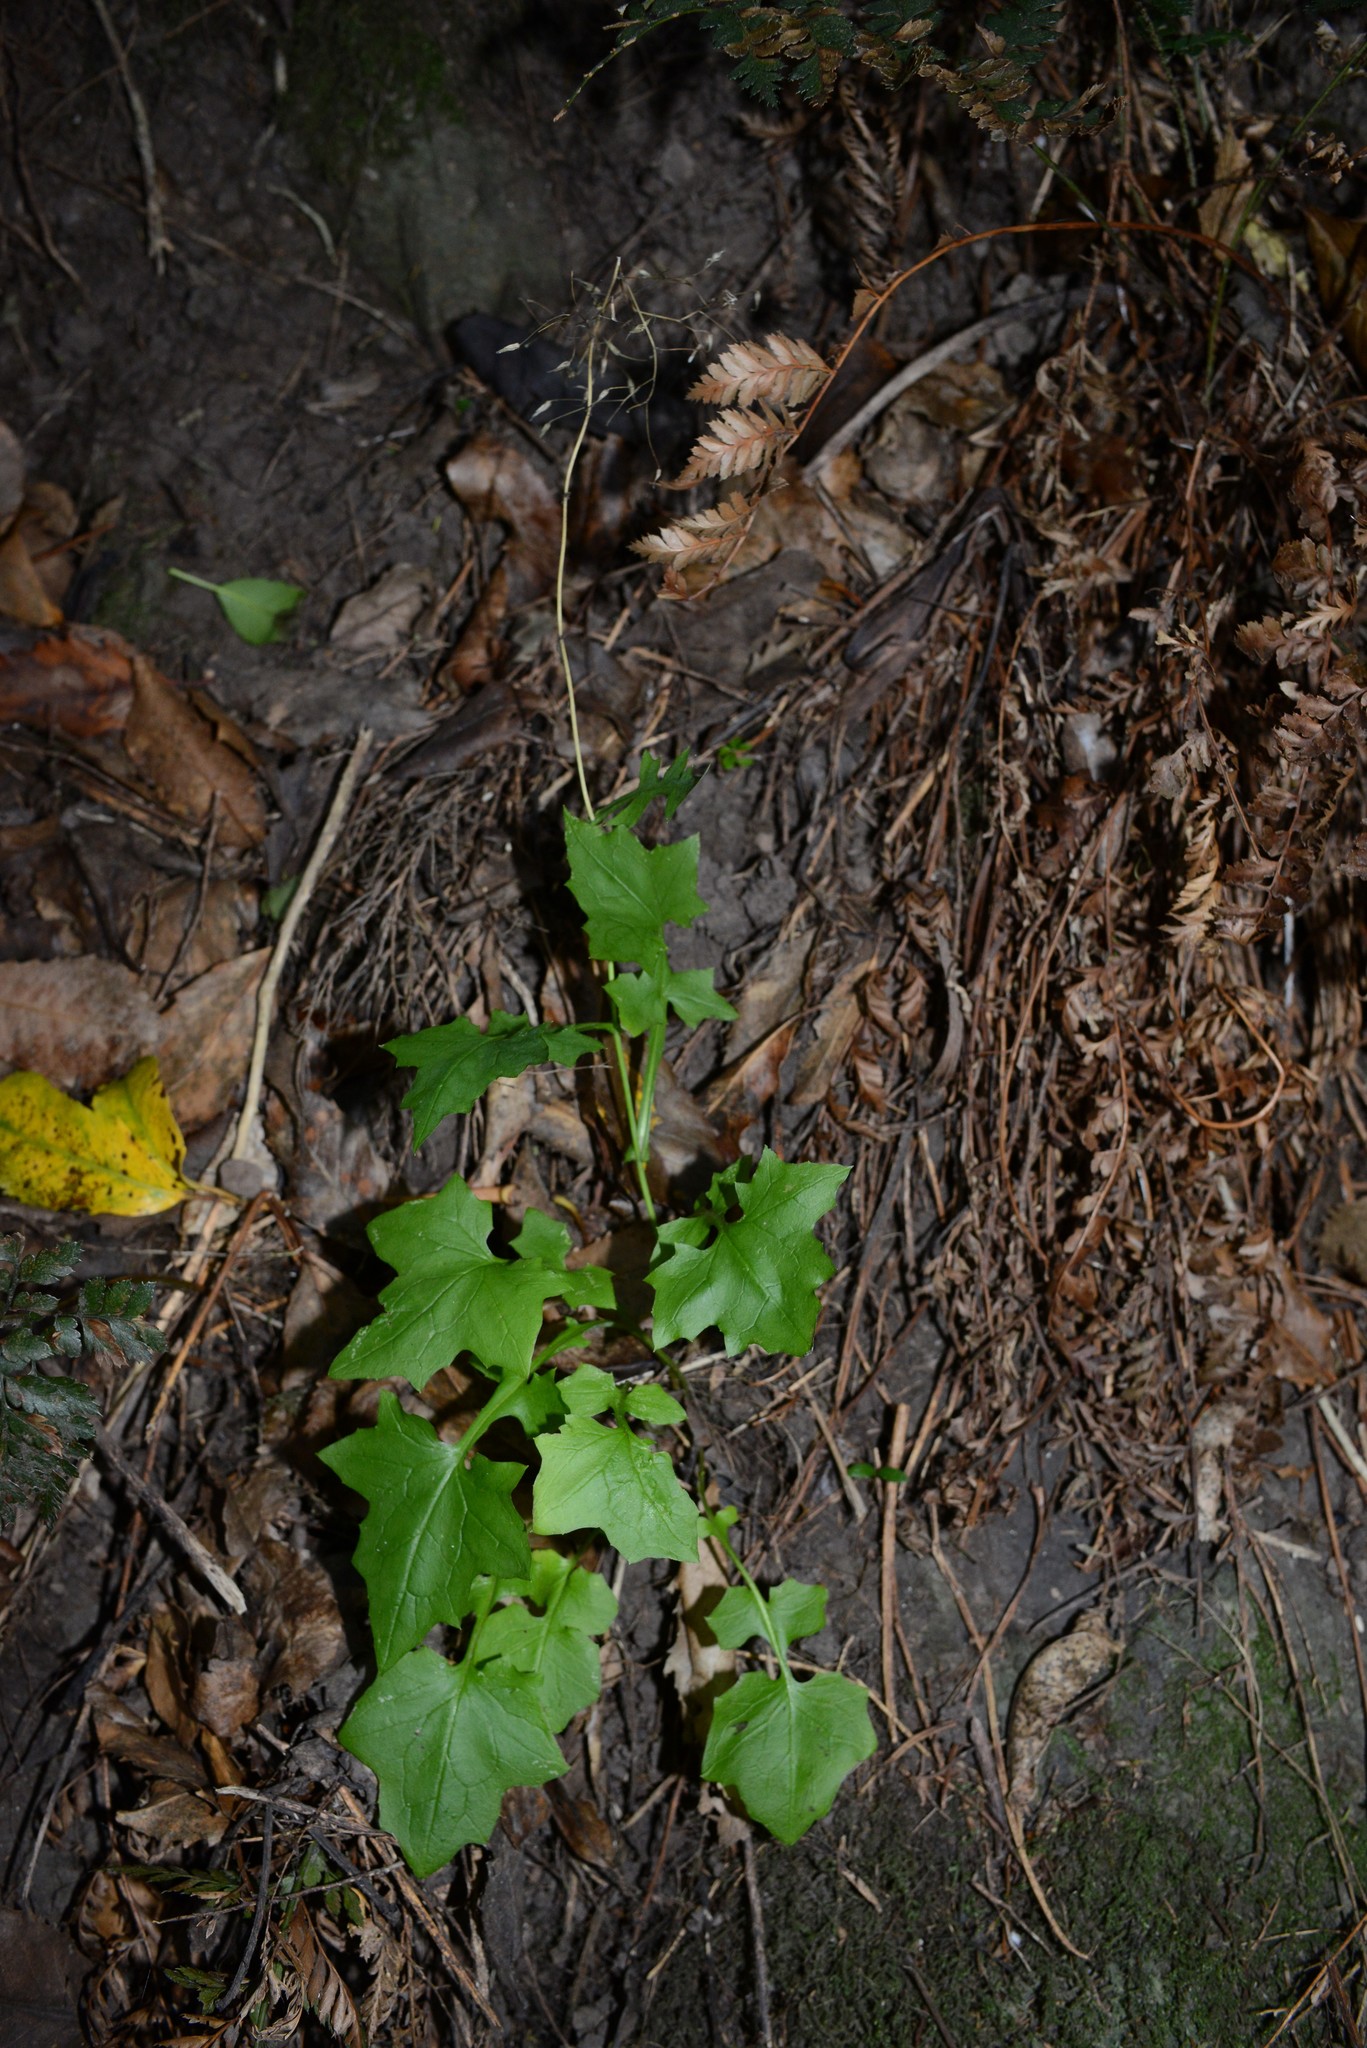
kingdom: Plantae
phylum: Tracheophyta
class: Magnoliopsida
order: Asterales
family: Asteraceae
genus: Mycelis
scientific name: Mycelis muralis
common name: Wall lettuce
